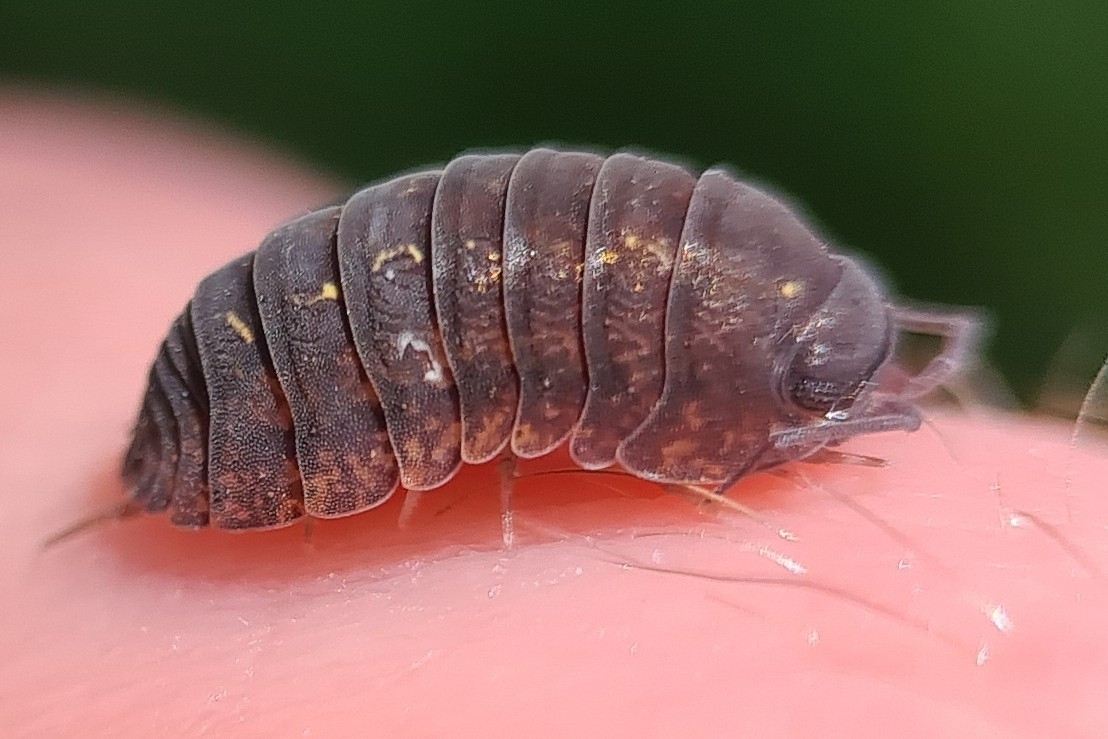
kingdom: Animalia
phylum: Arthropoda
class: Malacostraca
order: Isopoda
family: Armadillidae
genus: Cubaris
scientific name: Cubaris rufonigra
